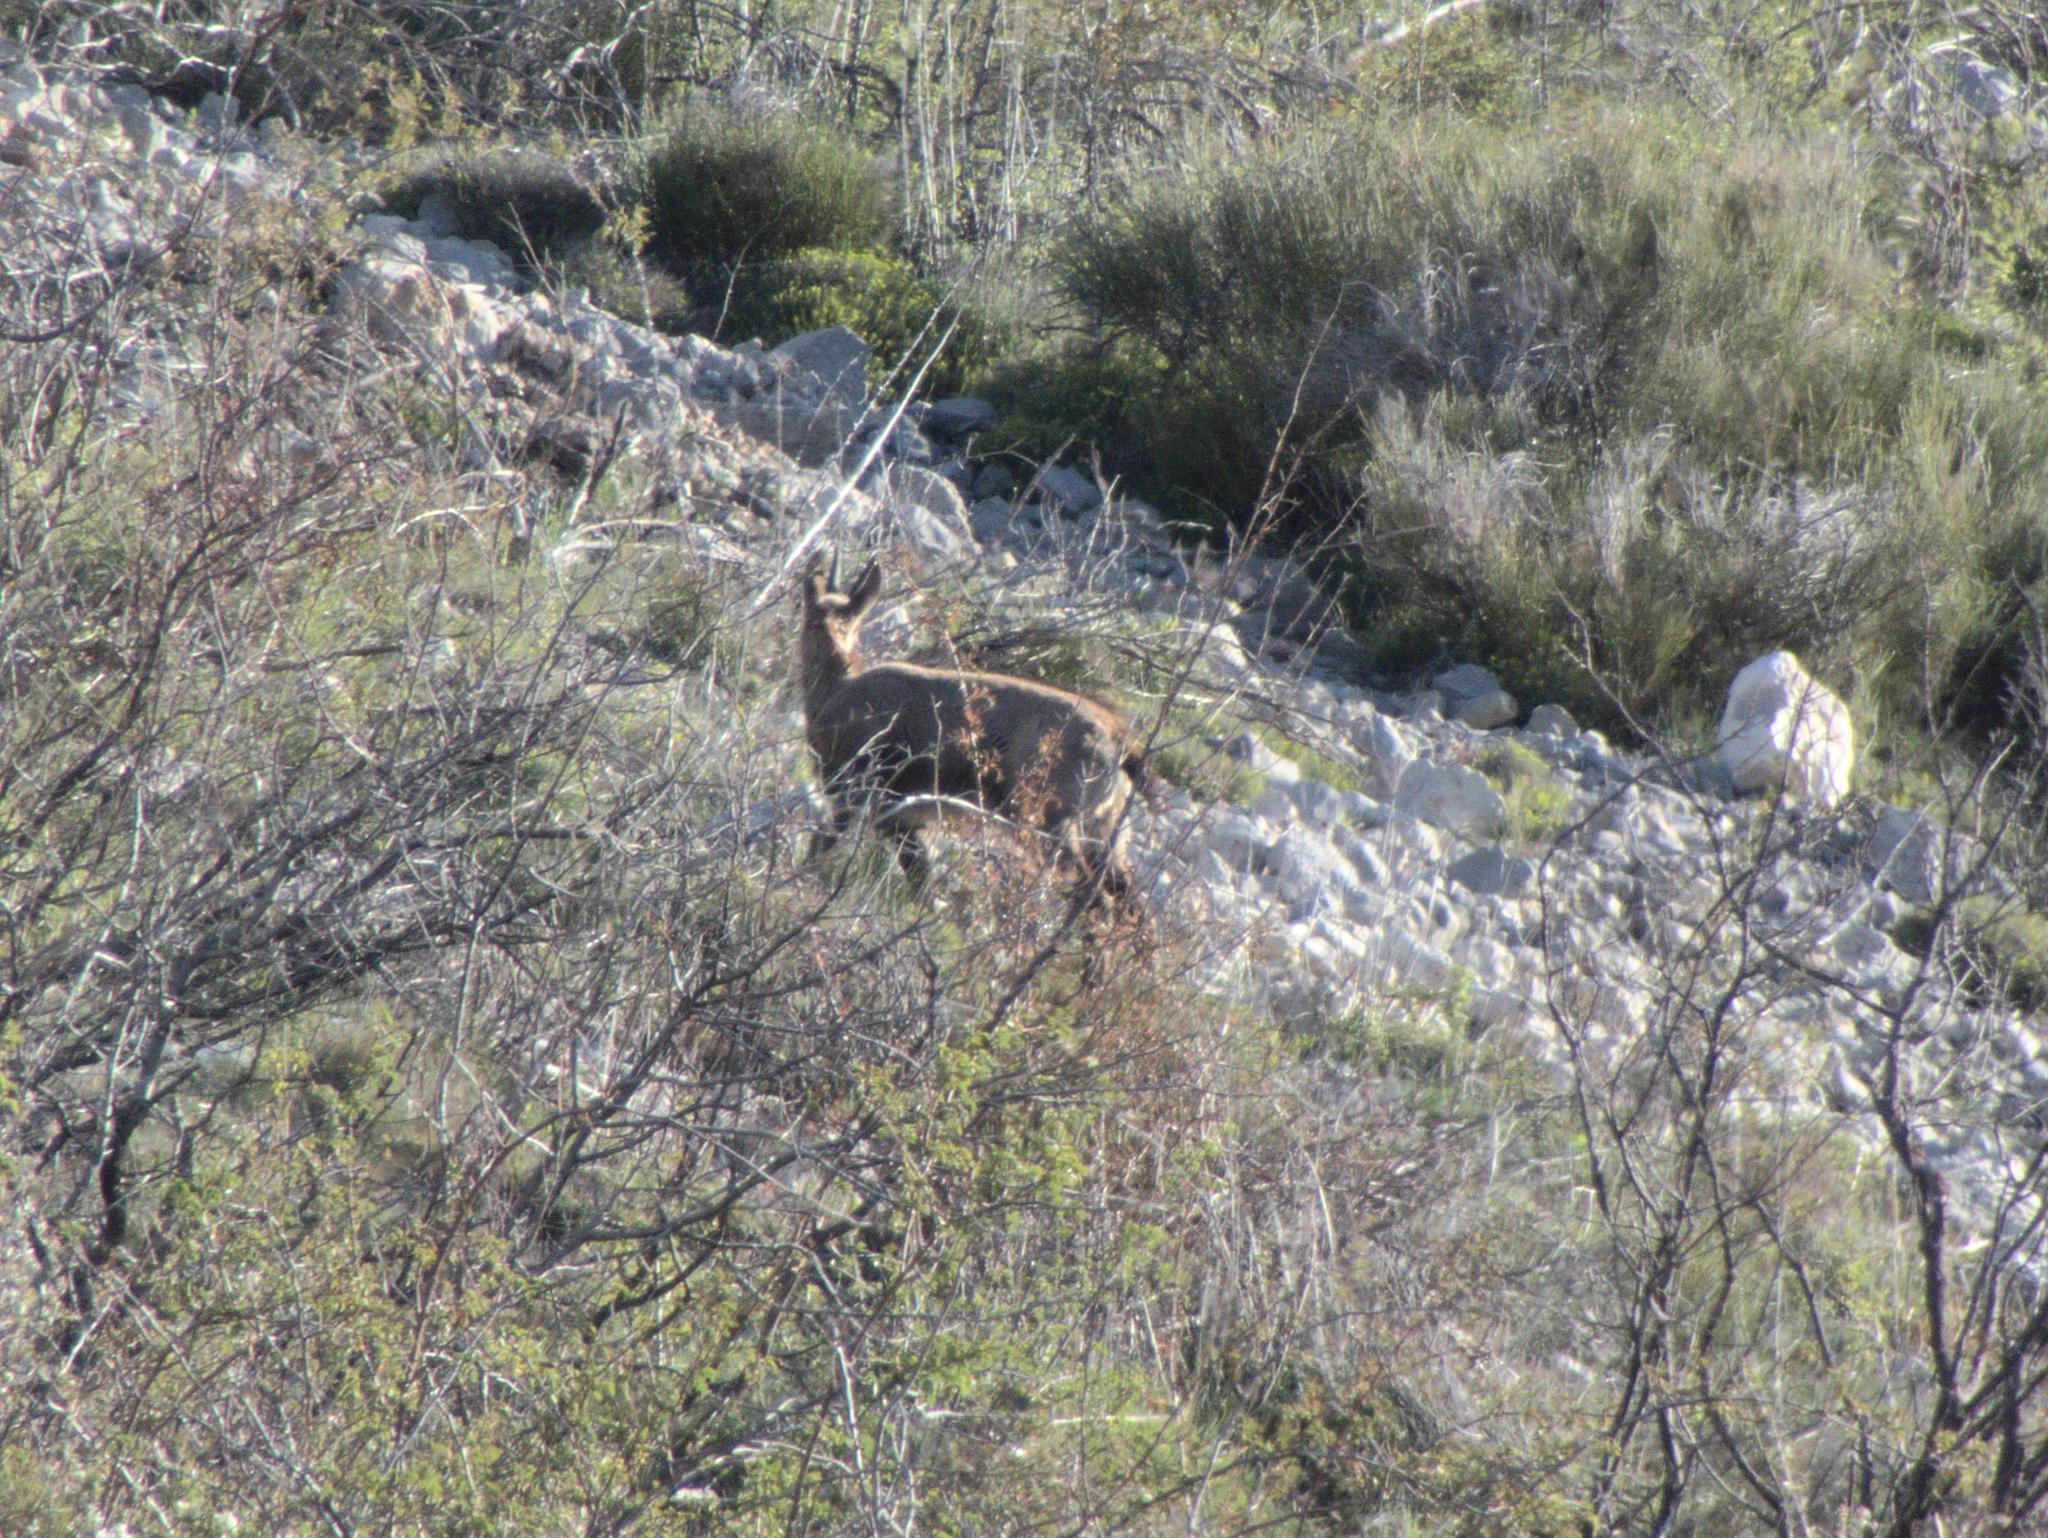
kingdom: Animalia
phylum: Chordata
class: Mammalia
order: Artiodactyla
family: Bovidae
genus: Rupicapra
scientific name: Rupicapra rupicapra
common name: Chamois
